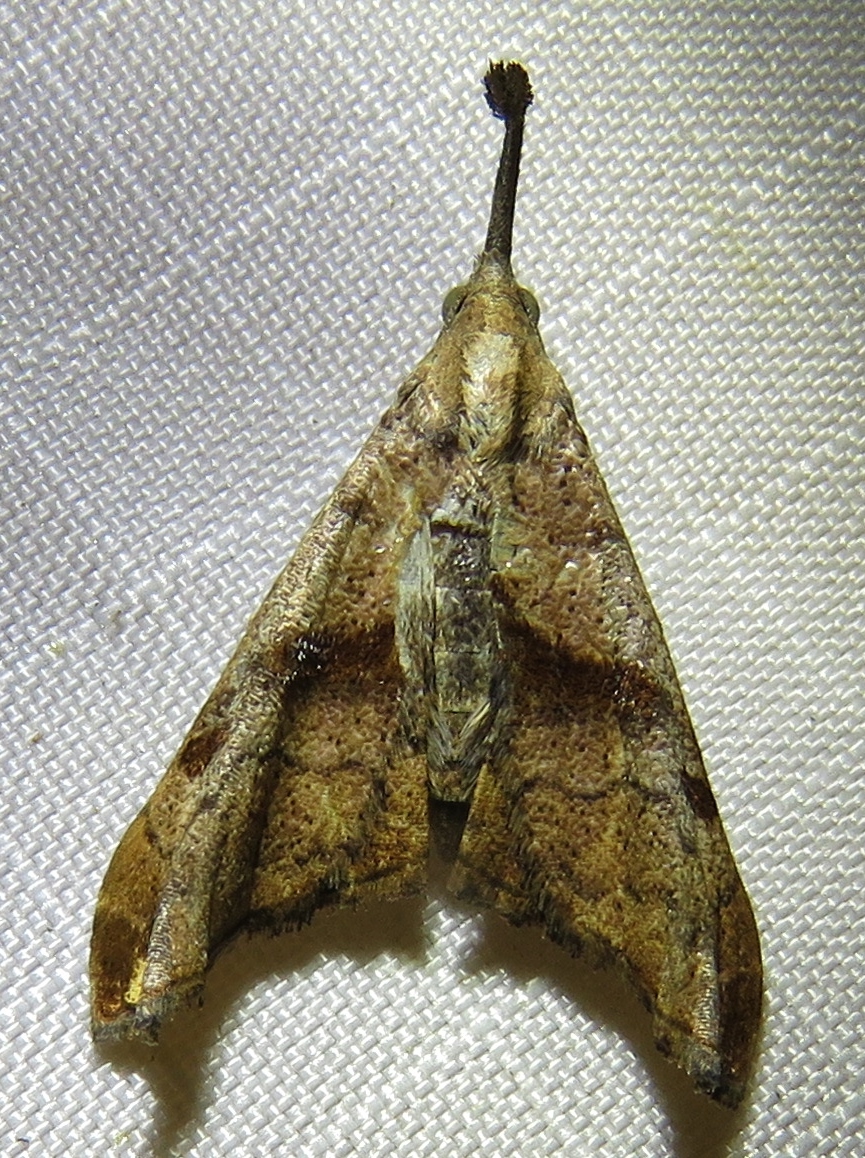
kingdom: Animalia
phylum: Arthropoda
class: Insecta
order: Lepidoptera
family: Erebidae
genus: Palthis
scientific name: Palthis angulalis
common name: Dark-spotted palthis moth
